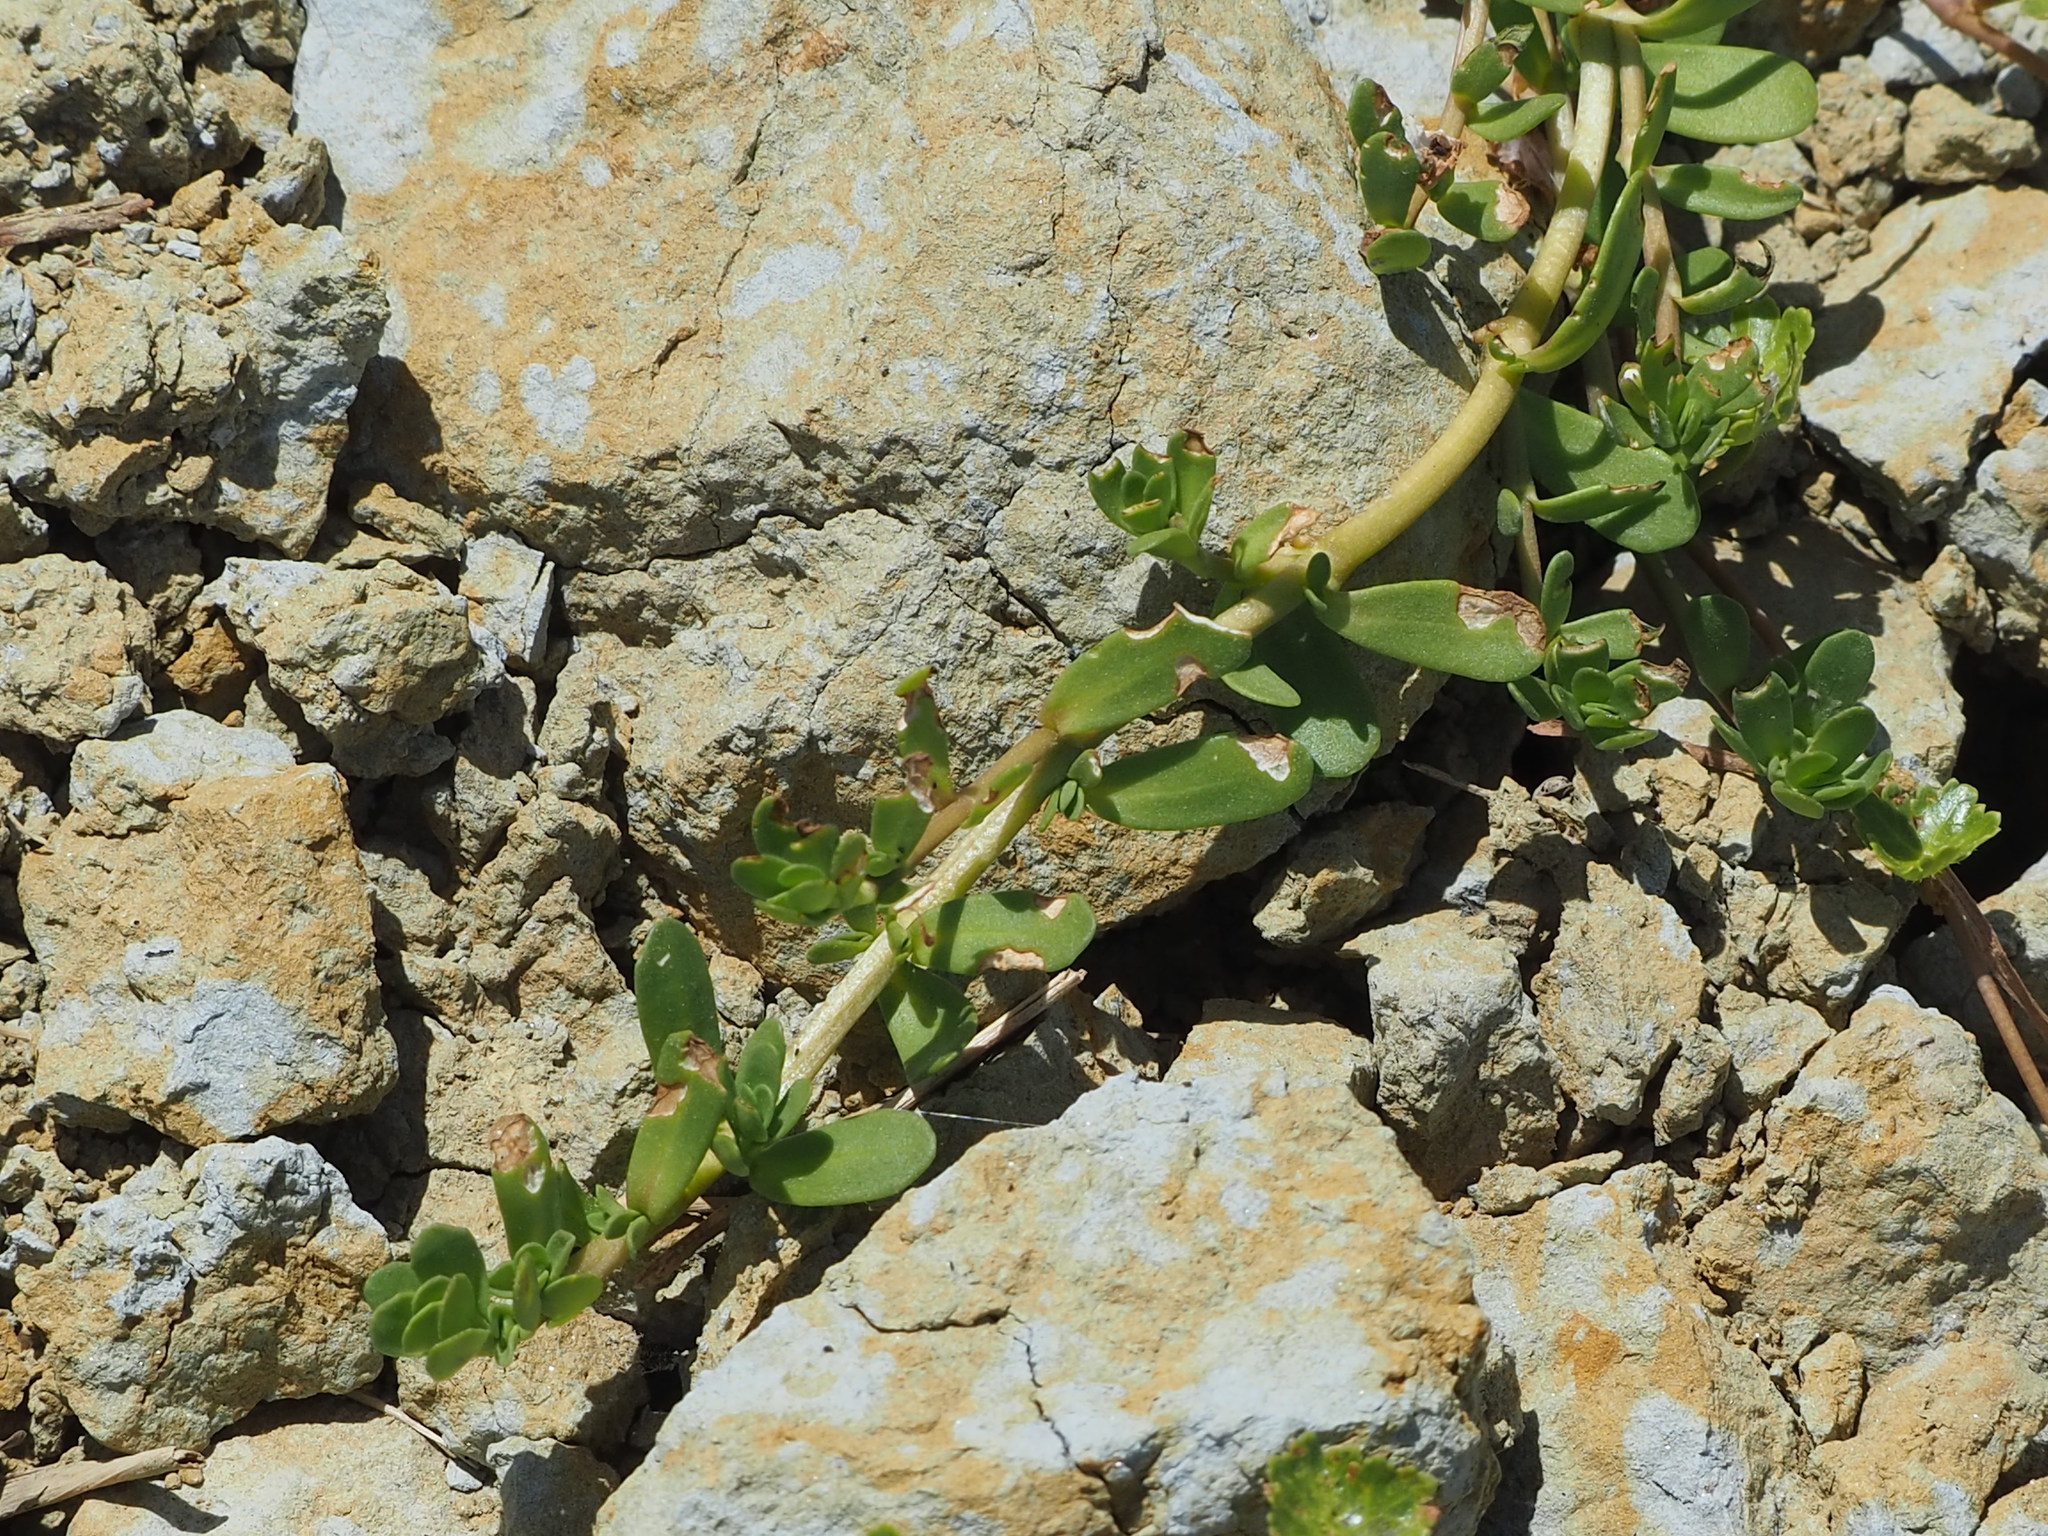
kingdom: Plantae
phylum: Tracheophyta
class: Magnoliopsida
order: Lamiales
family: Plantaginaceae
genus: Bacopa
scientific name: Bacopa monnieri
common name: Indian-pennywort
